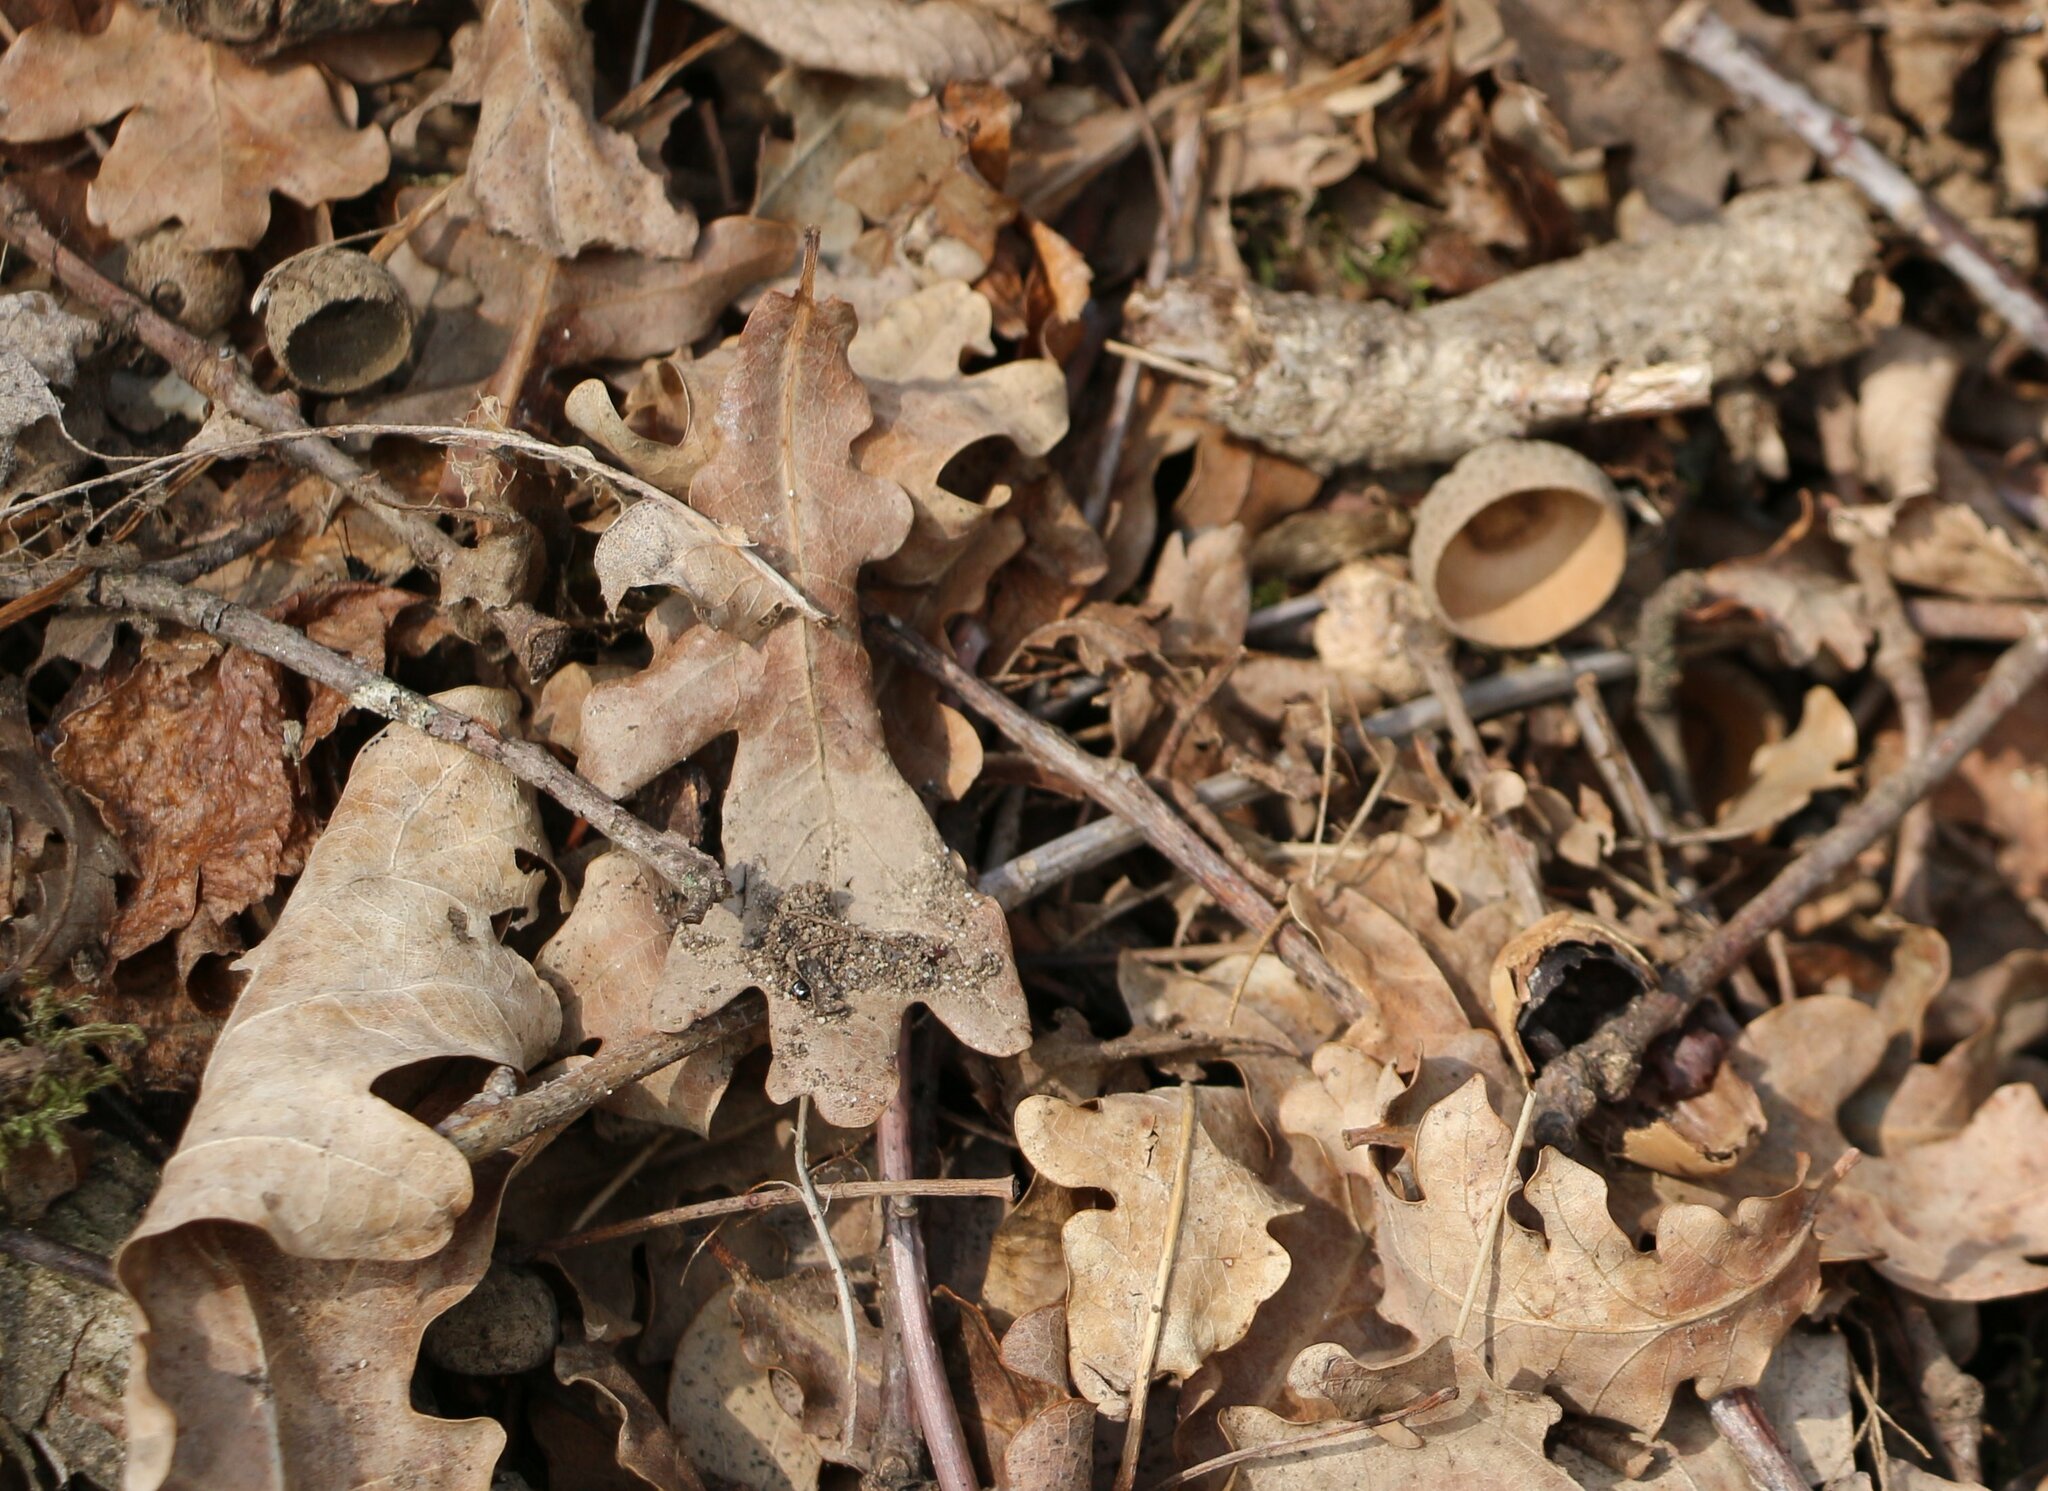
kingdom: Plantae
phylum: Tracheophyta
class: Magnoliopsida
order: Fagales
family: Fagaceae
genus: Quercus
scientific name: Quercus robur
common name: Pedunculate oak
